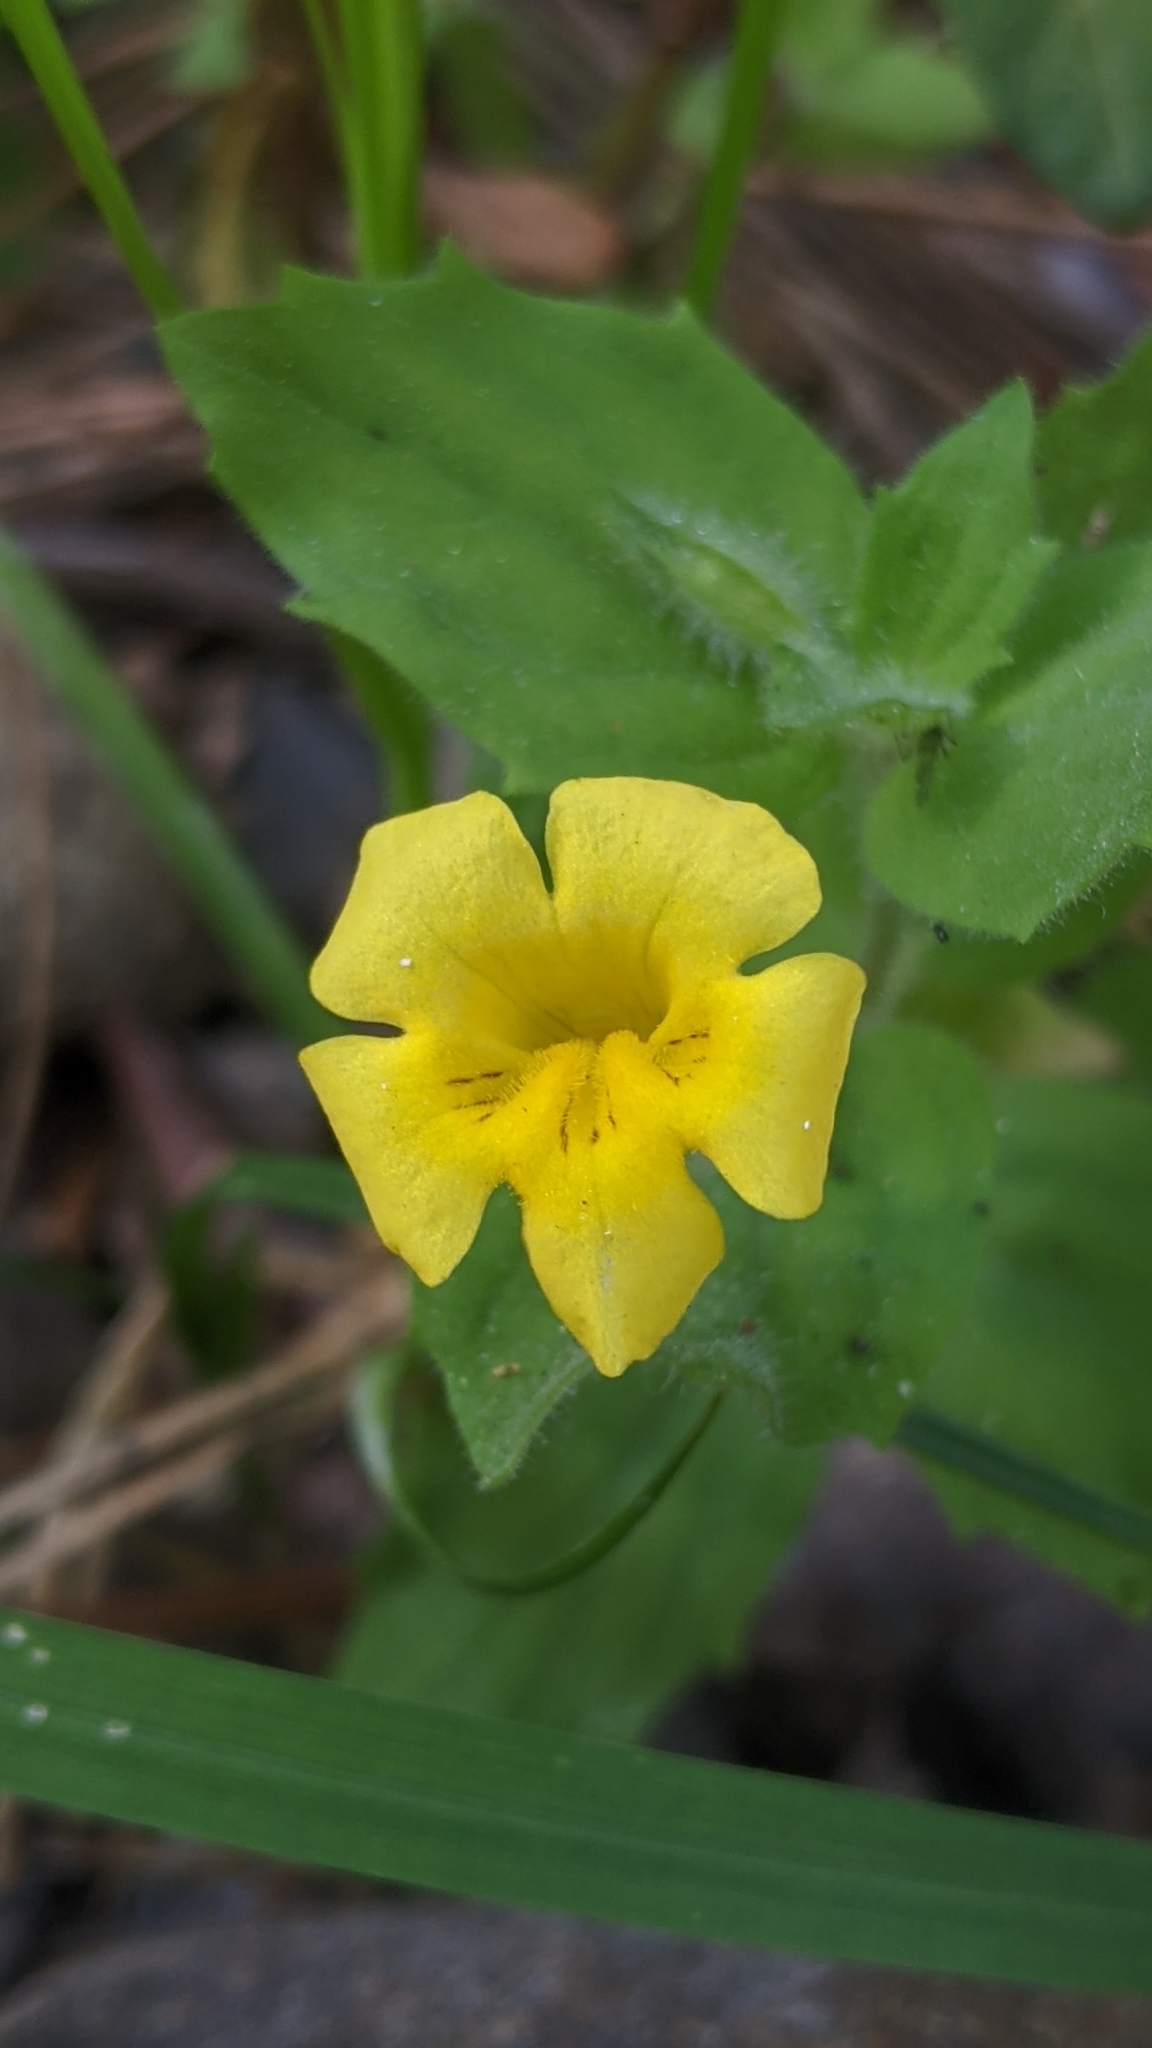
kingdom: Plantae
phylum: Tracheophyta
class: Magnoliopsida
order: Lamiales
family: Phrymaceae
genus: Erythranthe
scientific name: Erythranthe moschata
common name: Muskflower
